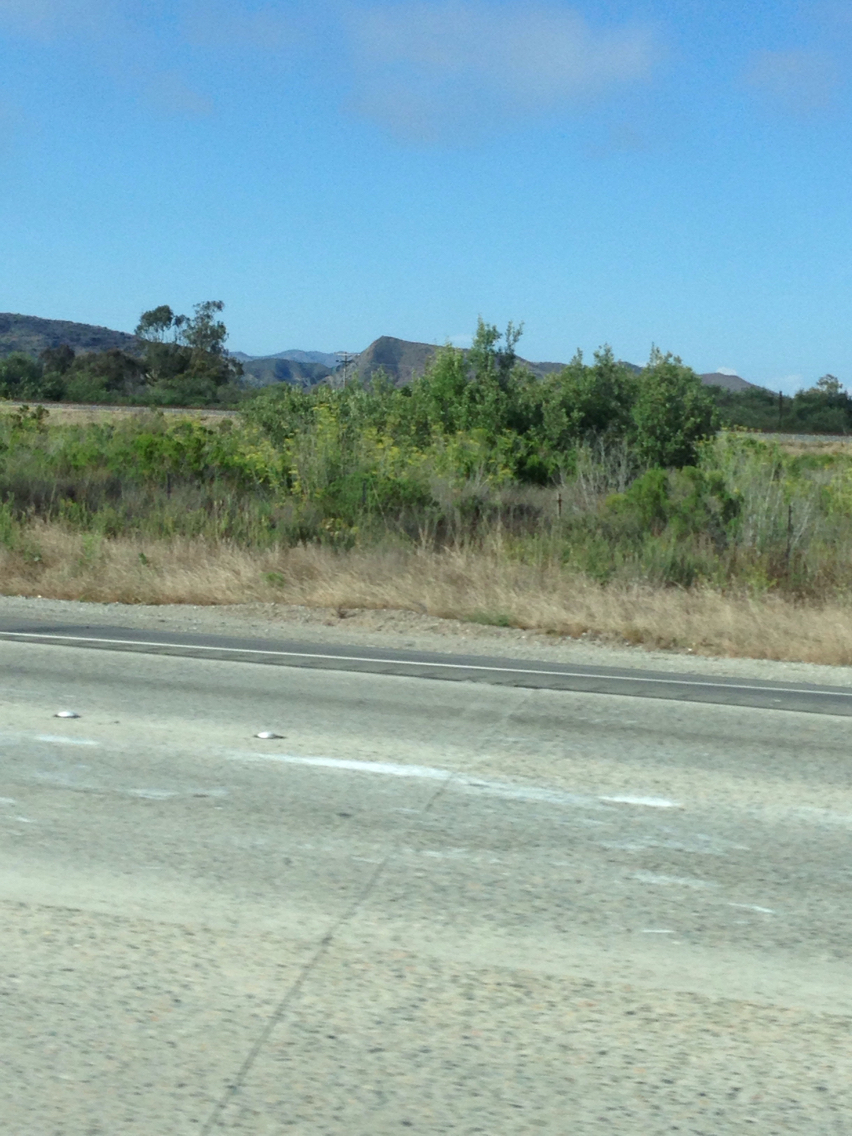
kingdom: Plantae
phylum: Tracheophyta
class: Magnoliopsida
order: Apiales
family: Apiaceae
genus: Foeniculum
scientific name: Foeniculum vulgare
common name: Fennel
